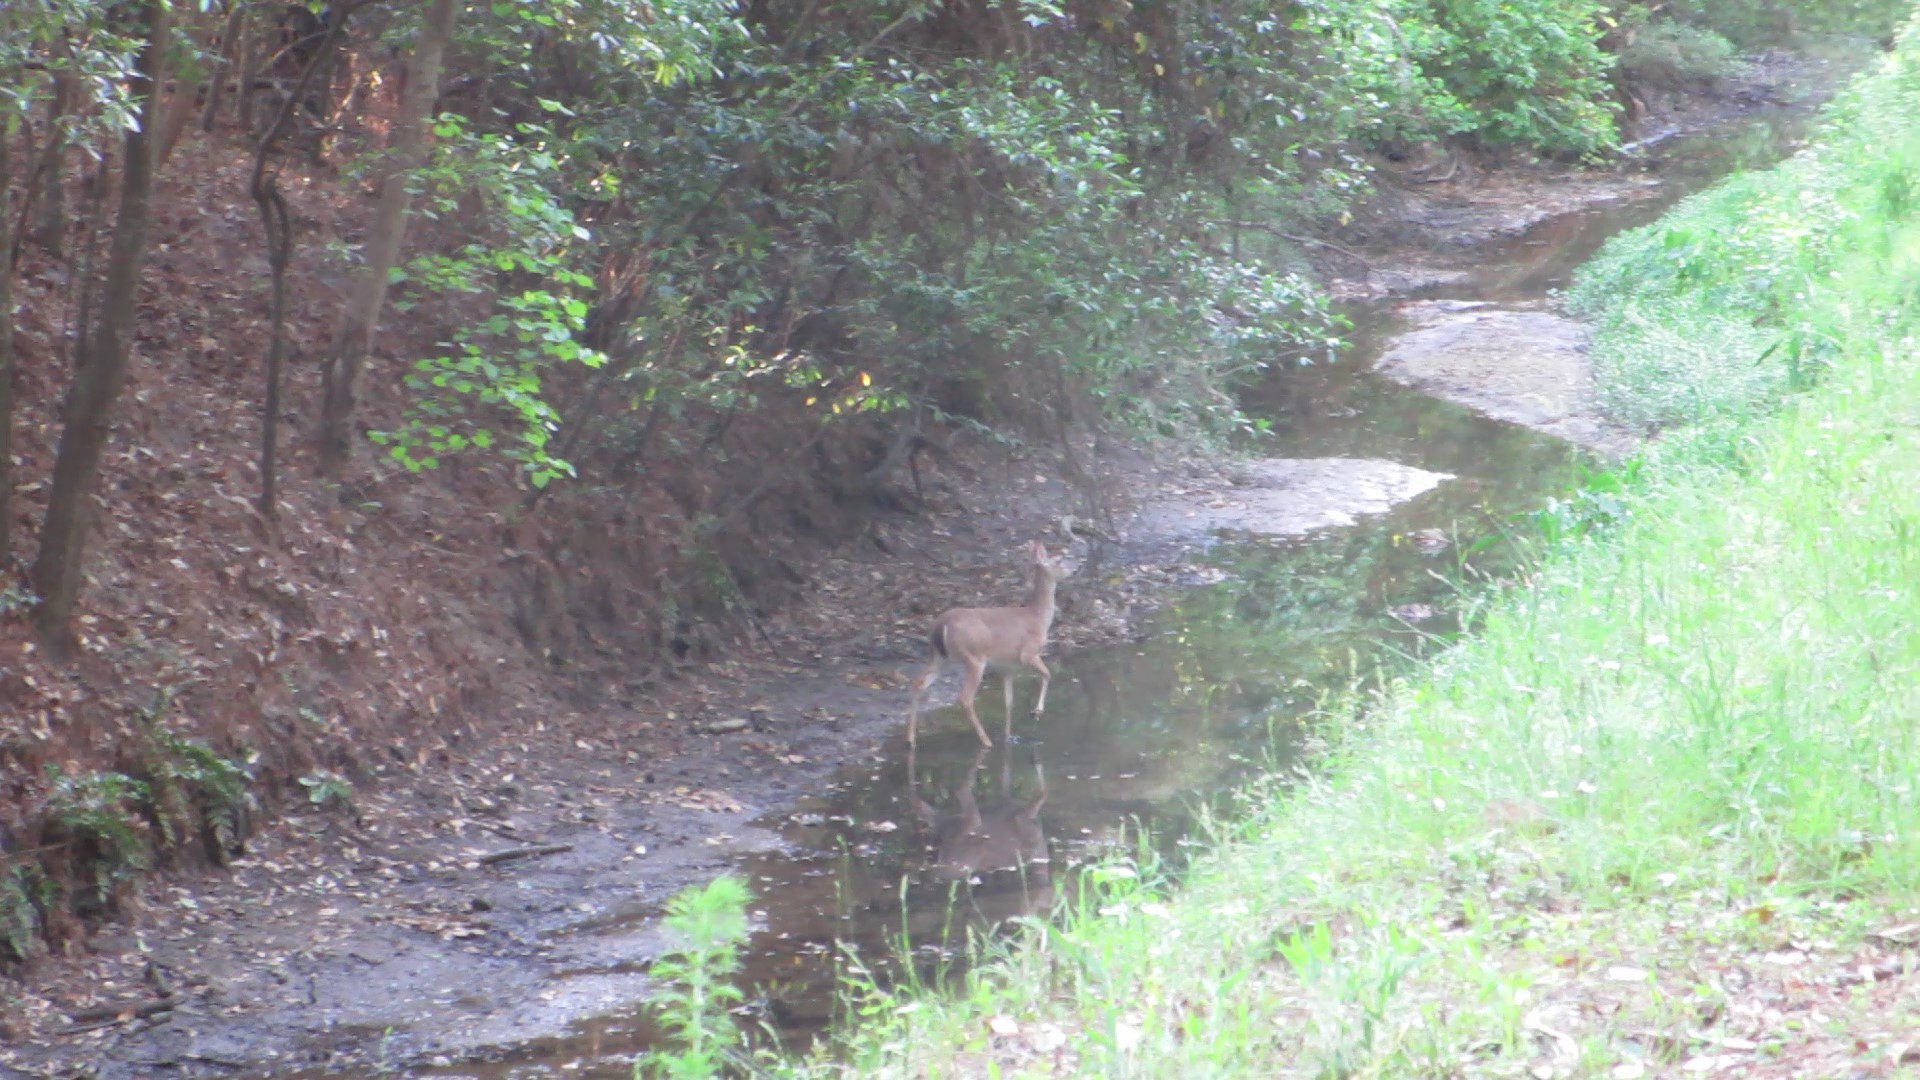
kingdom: Animalia
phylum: Chordata
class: Mammalia
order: Artiodactyla
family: Cervidae
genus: Odocoileus
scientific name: Odocoileus virginianus
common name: White-tailed deer
